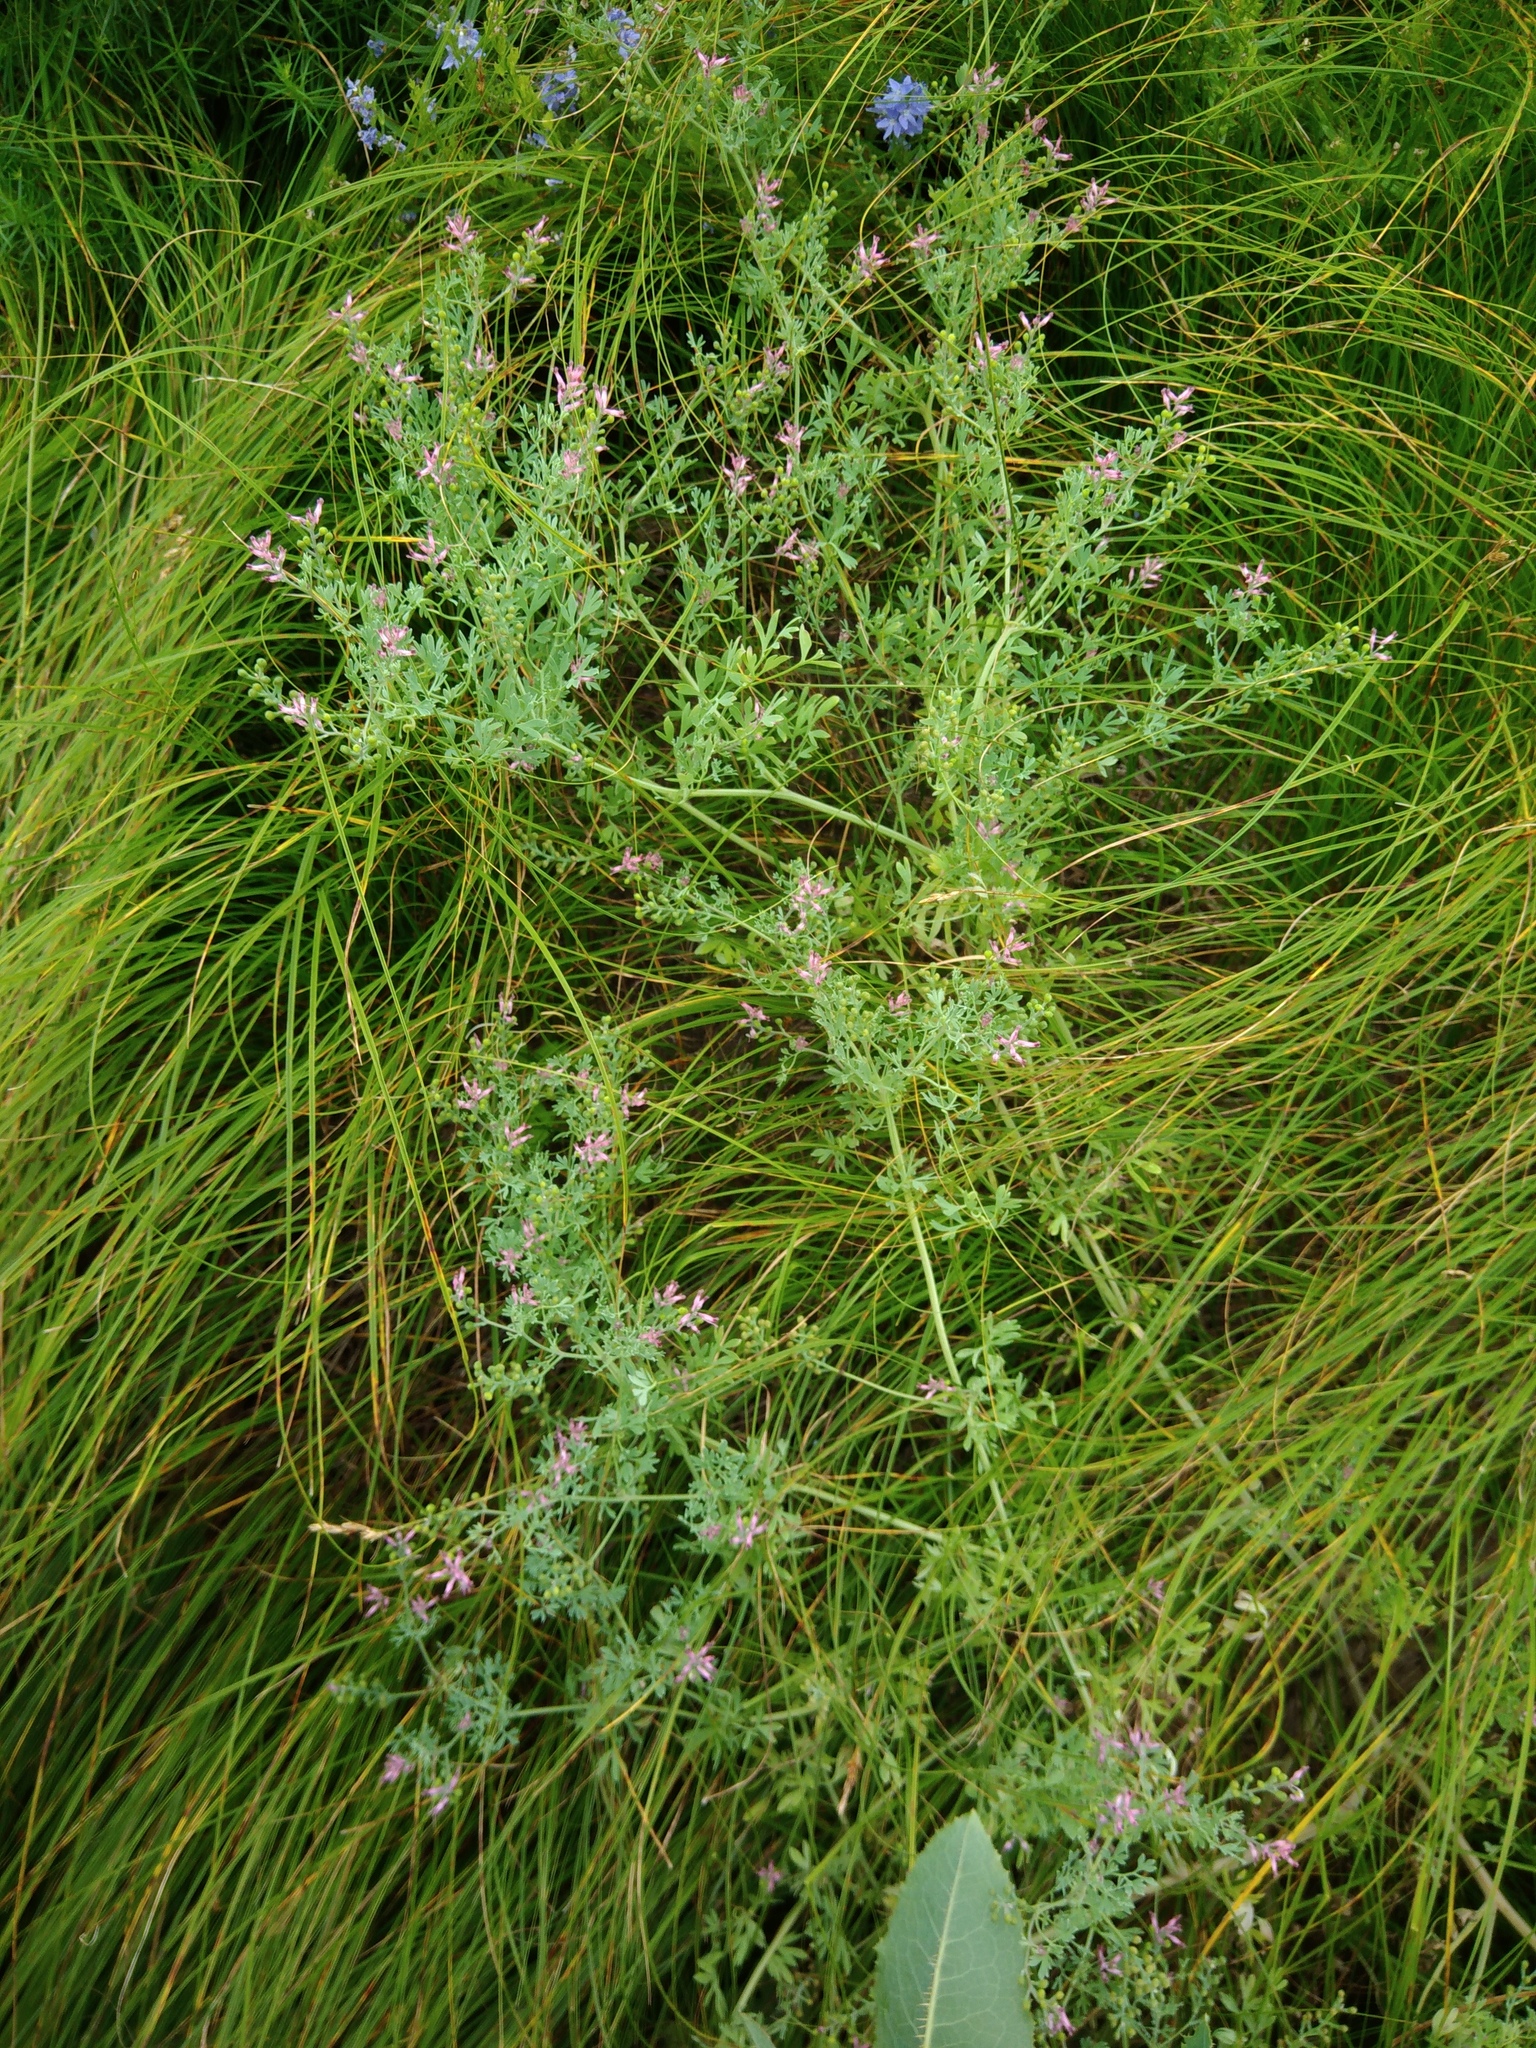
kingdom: Plantae
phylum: Tracheophyta
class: Magnoliopsida
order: Ranunculales
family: Papaveraceae
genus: Fumaria
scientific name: Fumaria schleicheri
